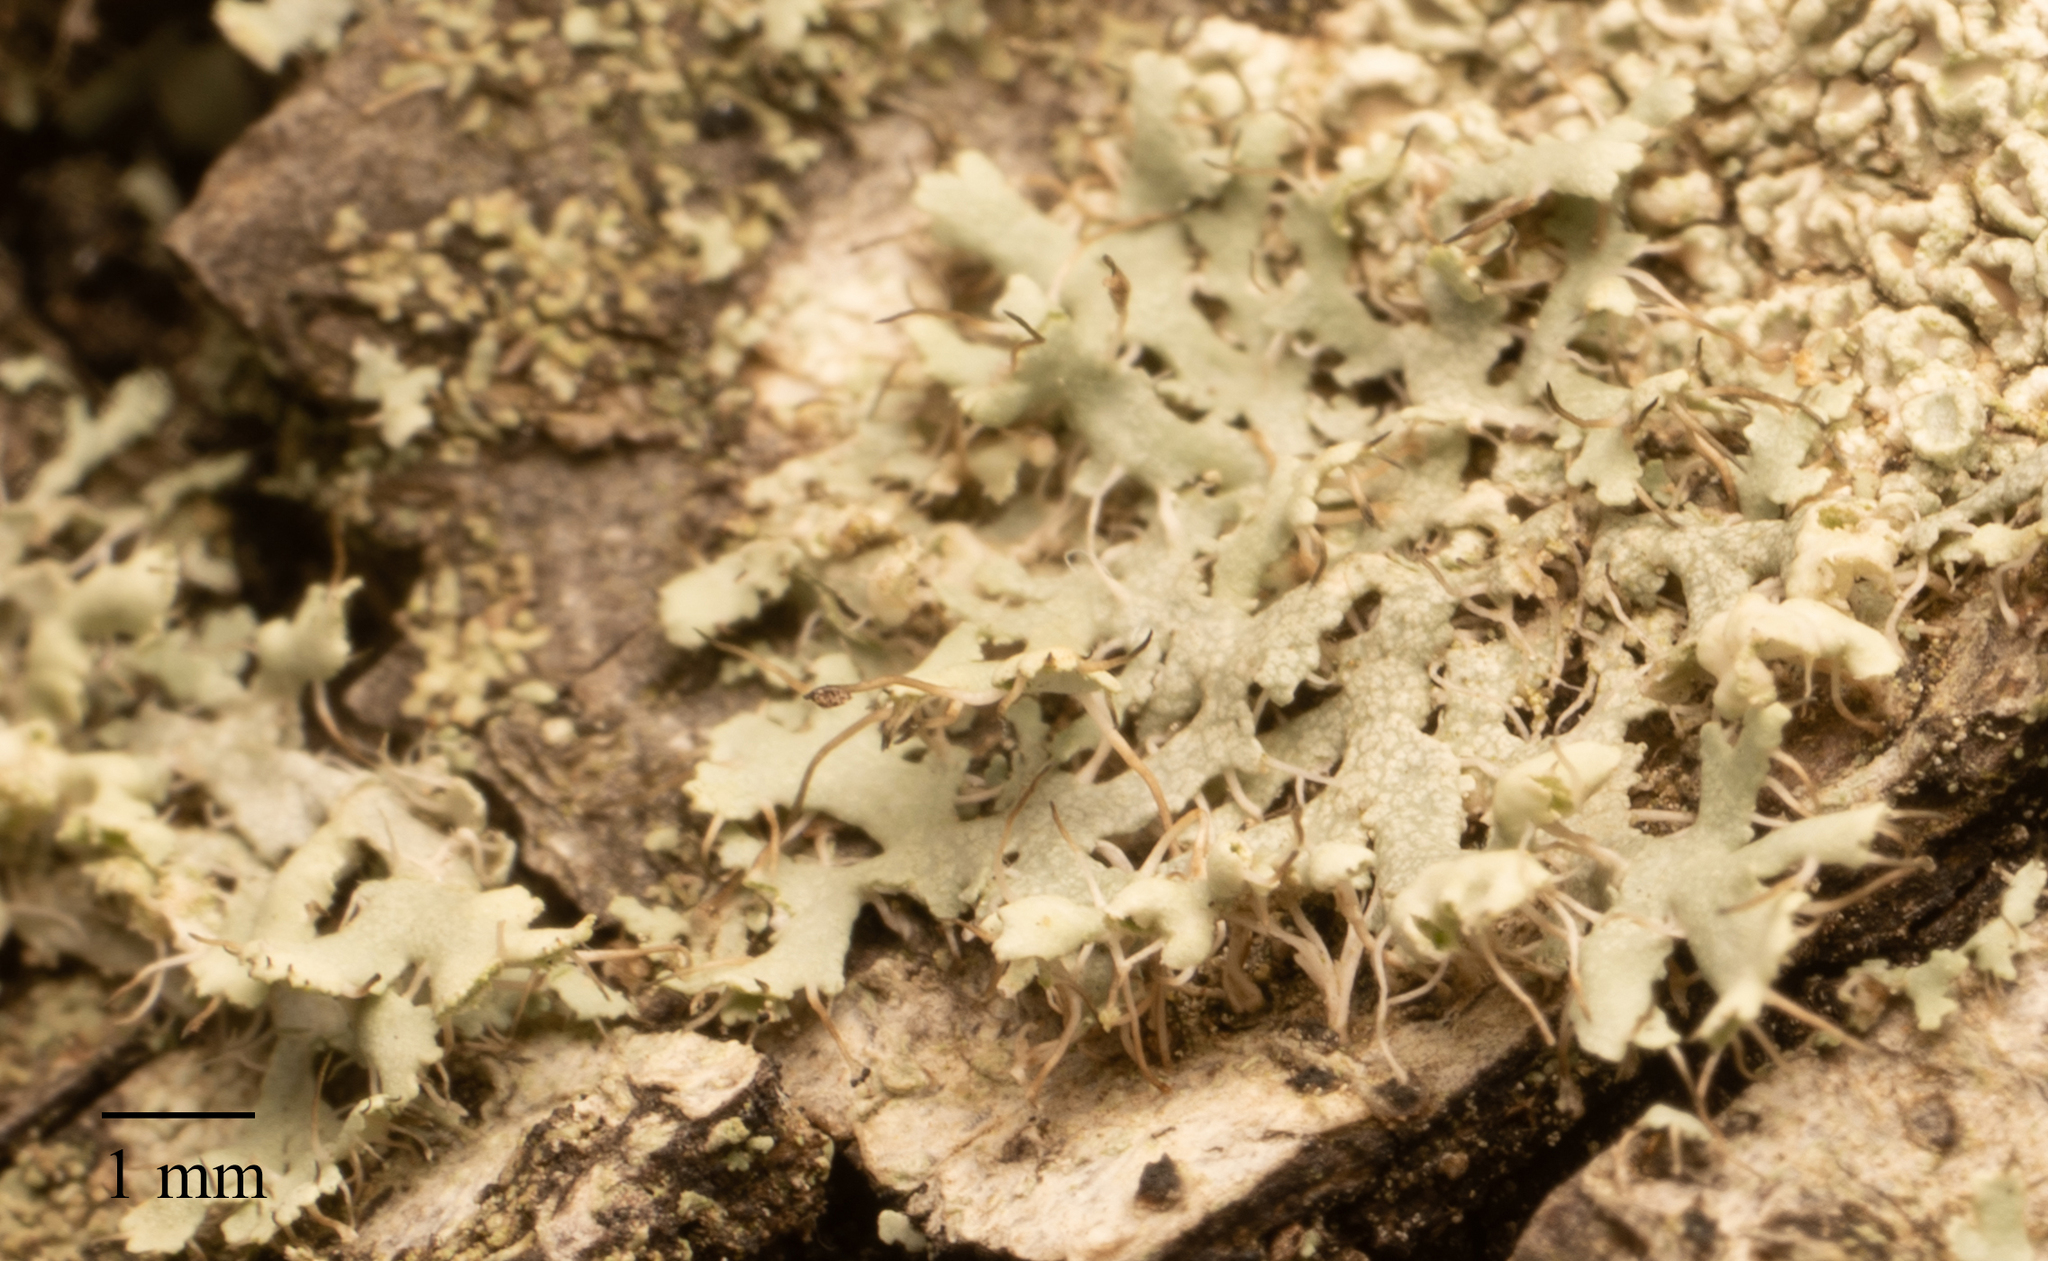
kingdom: Fungi
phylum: Ascomycota
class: Lecanoromycetes
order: Caliciales
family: Physciaceae
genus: Physcia
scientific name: Physcia adscendens
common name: Hooded rosette lichen
